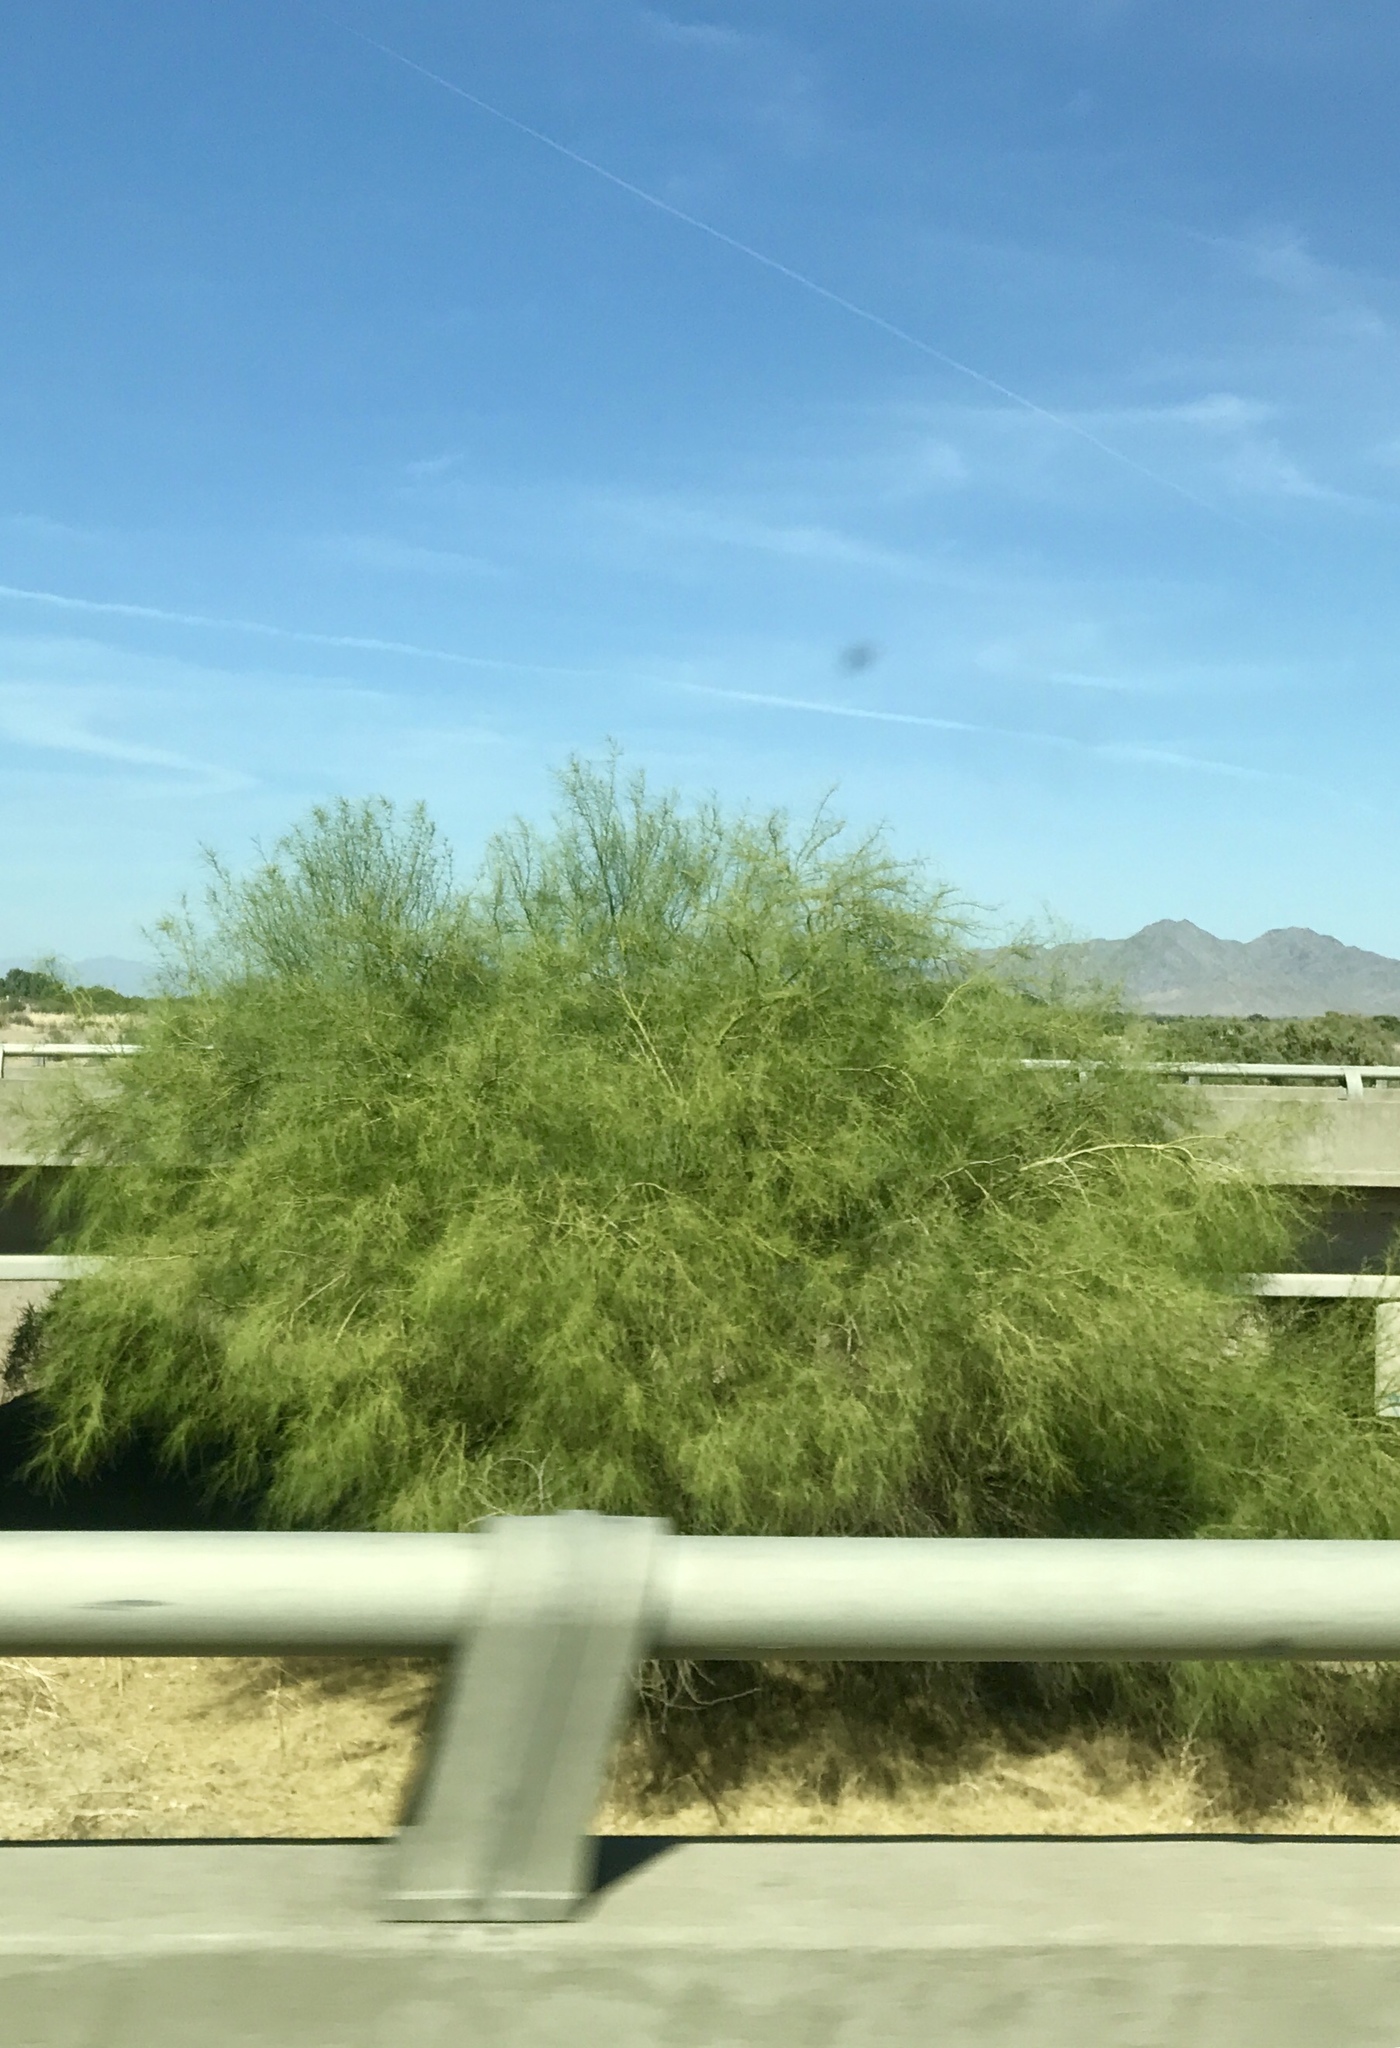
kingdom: Plantae
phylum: Tracheophyta
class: Magnoliopsida
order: Fabales
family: Fabaceae
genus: Parkinsonia
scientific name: Parkinsonia aculeata
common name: Jerusalem thorn
